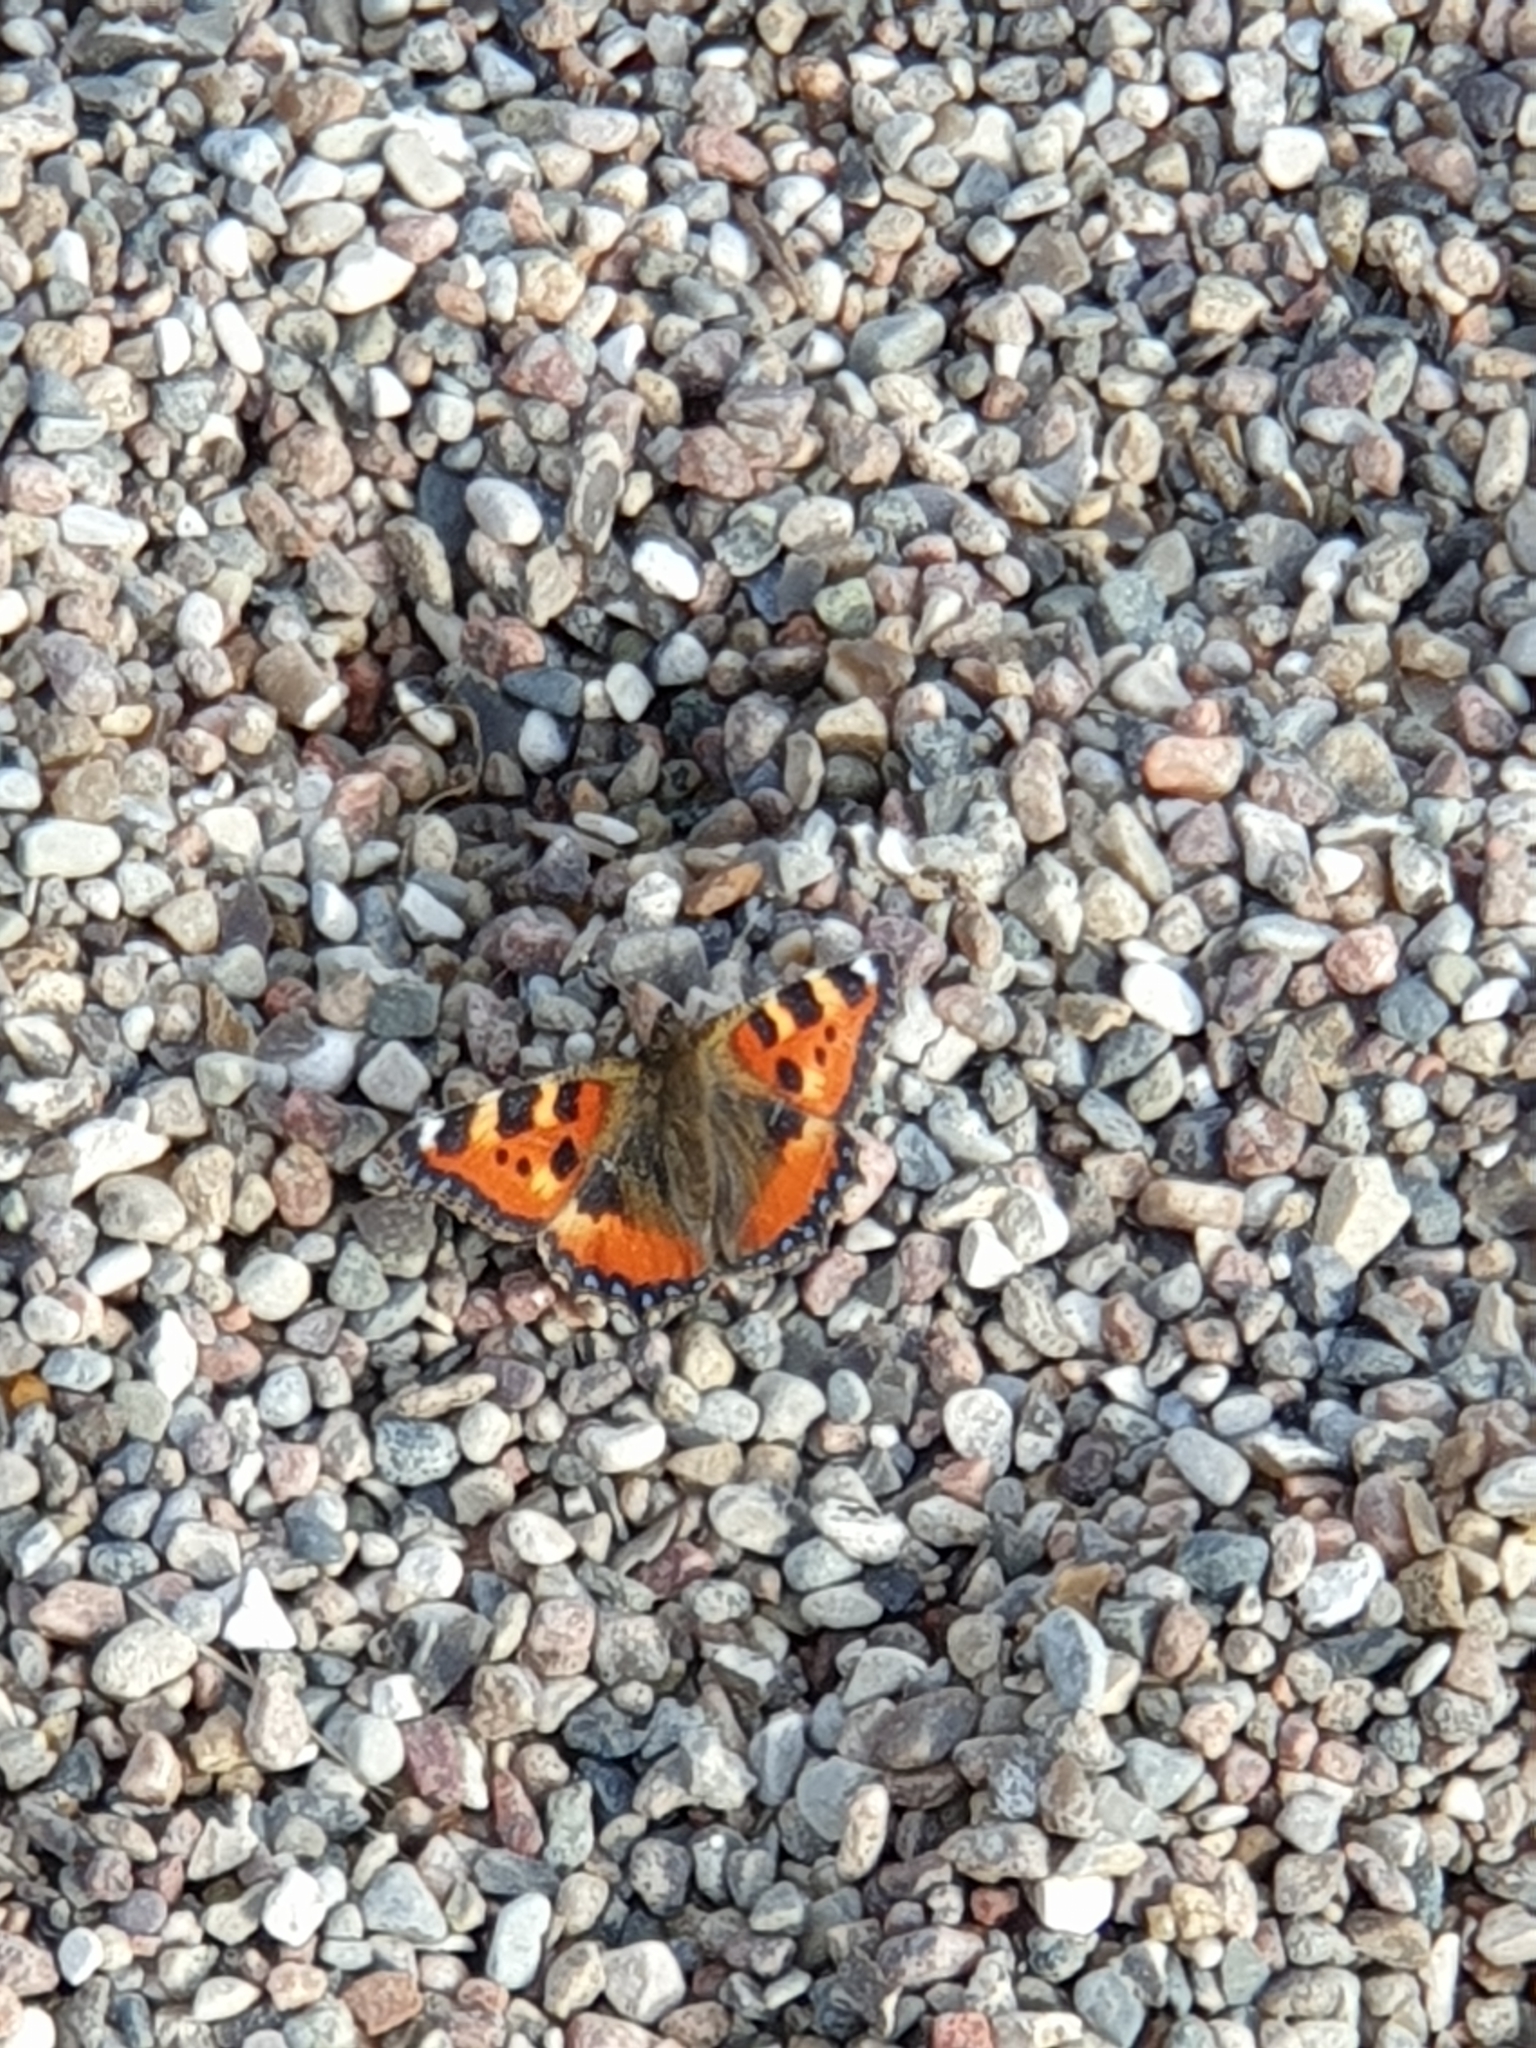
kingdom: Animalia
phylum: Arthropoda
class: Insecta
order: Lepidoptera
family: Nymphalidae
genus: Aglais
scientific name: Aglais urticae
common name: Small tortoiseshell
